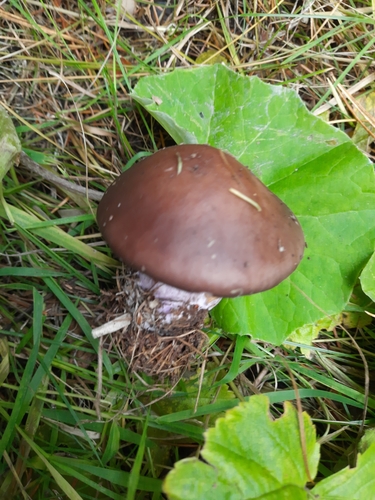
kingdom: Fungi
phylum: Basidiomycota
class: Agaricomycetes
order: Agaricales
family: Tricholomataceae
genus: Lepista
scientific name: Lepista nuda
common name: Wood blewit
